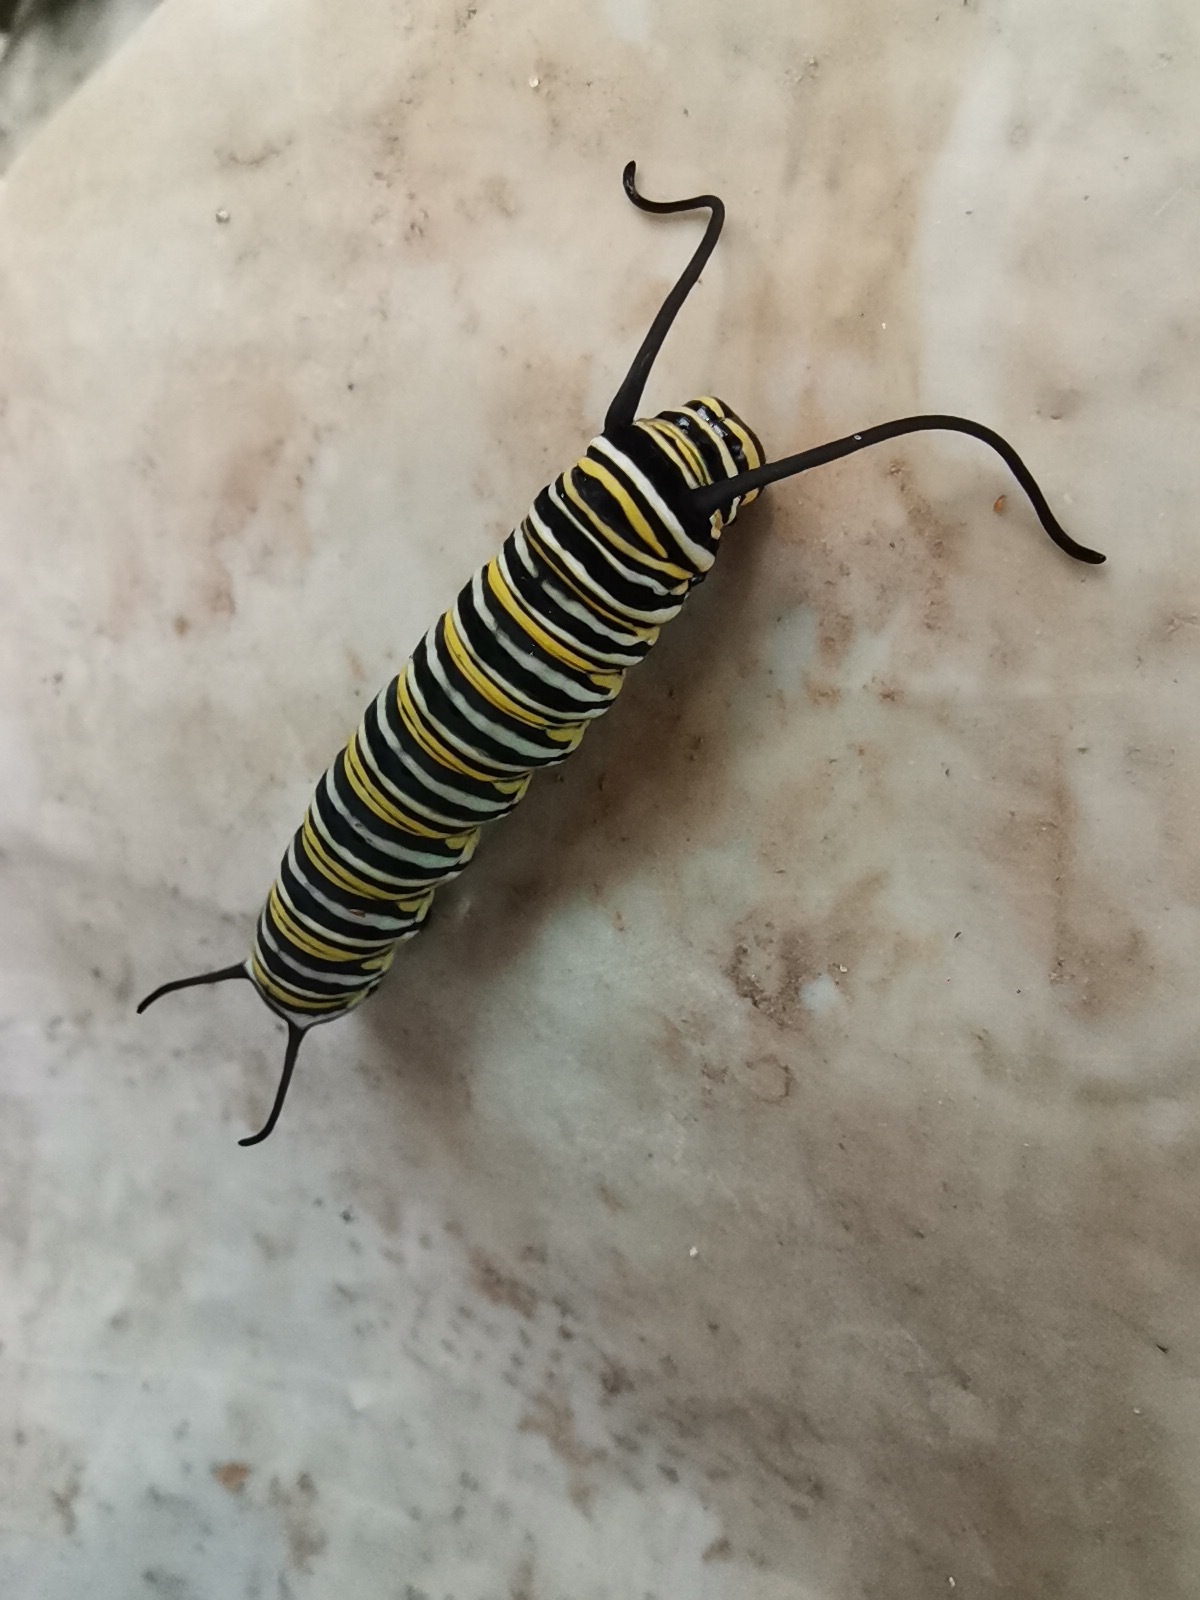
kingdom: Animalia
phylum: Arthropoda
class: Insecta
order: Lepidoptera
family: Nymphalidae
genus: Danaus
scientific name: Danaus plexippus
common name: Monarch
